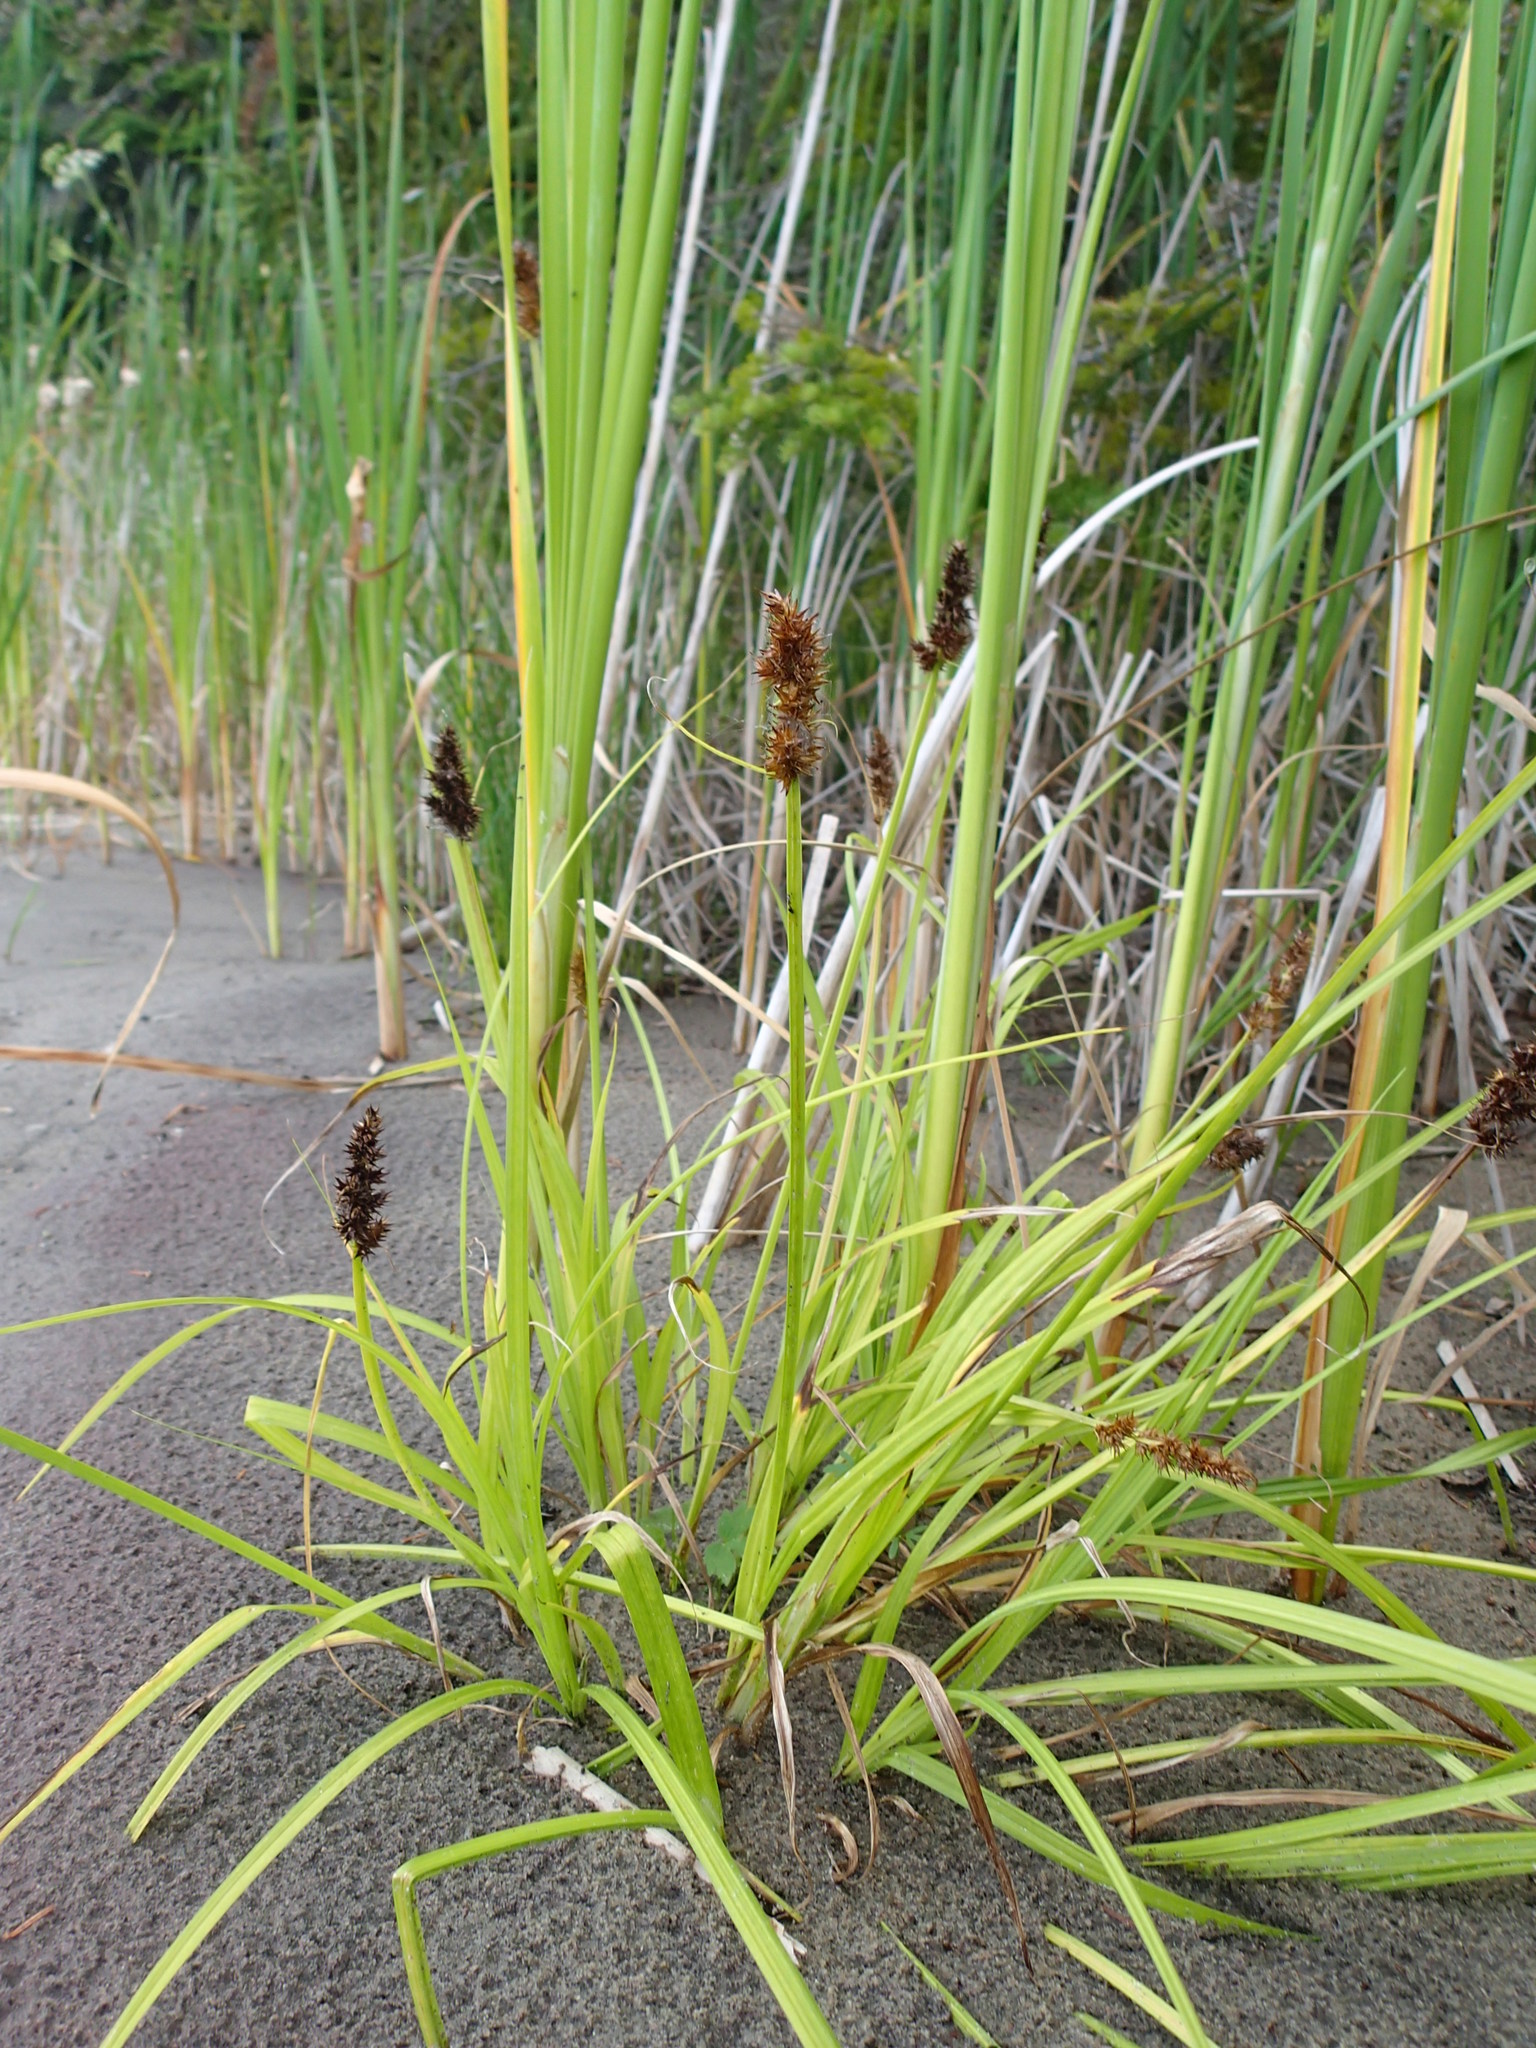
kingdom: Plantae
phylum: Tracheophyta
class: Liliopsida
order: Poales
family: Cyperaceae
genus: Carex
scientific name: Carex stipata
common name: Awl-fruited sedge
